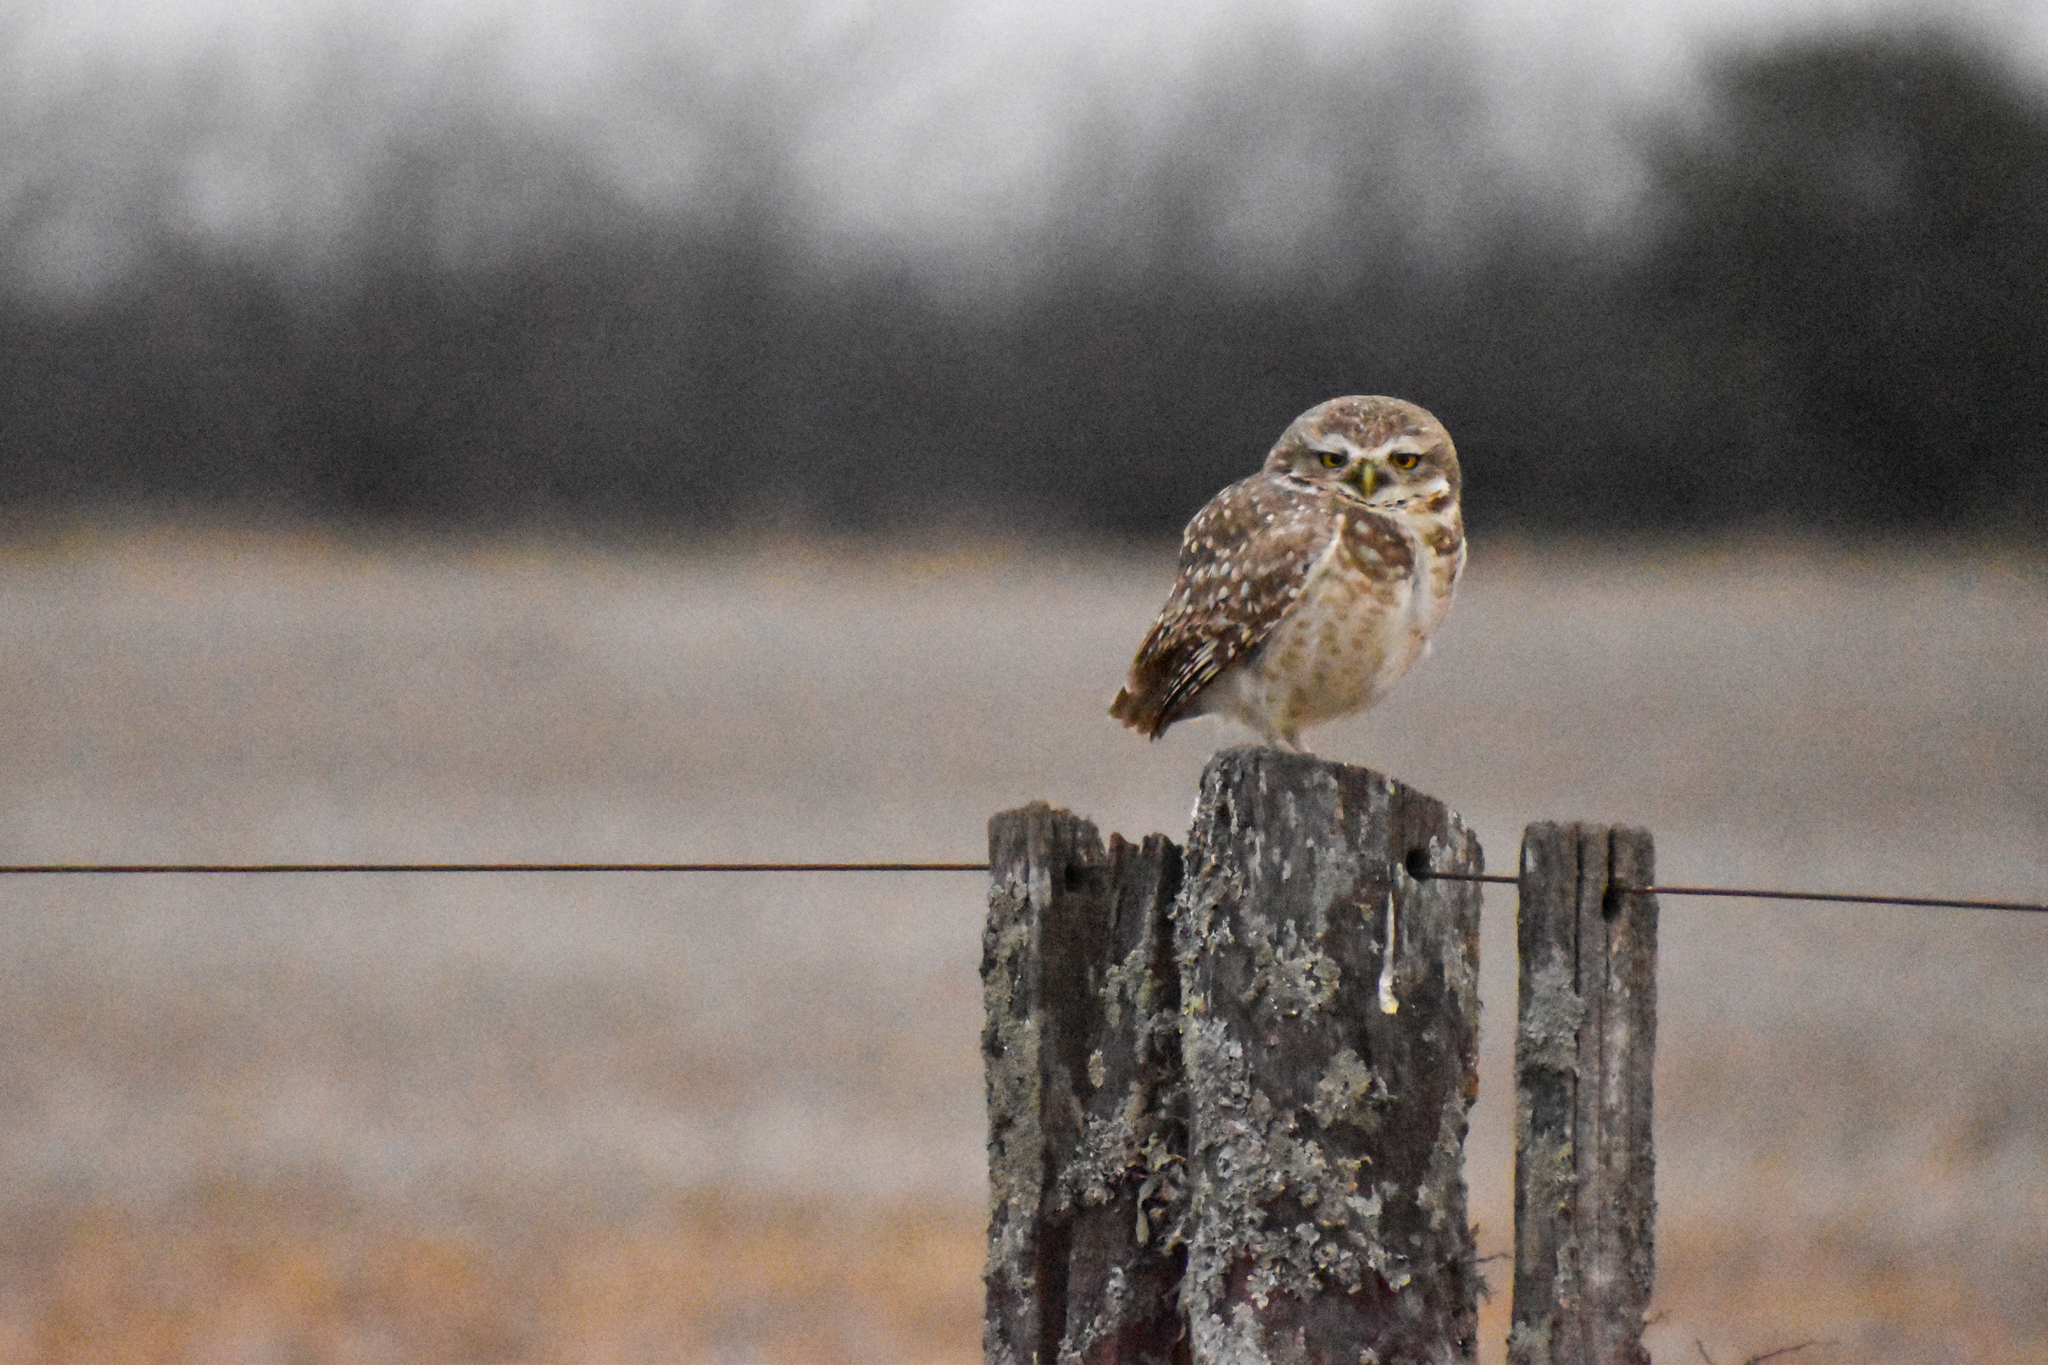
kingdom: Animalia
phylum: Chordata
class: Aves
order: Strigiformes
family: Strigidae
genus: Athene
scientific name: Athene cunicularia
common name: Burrowing owl
